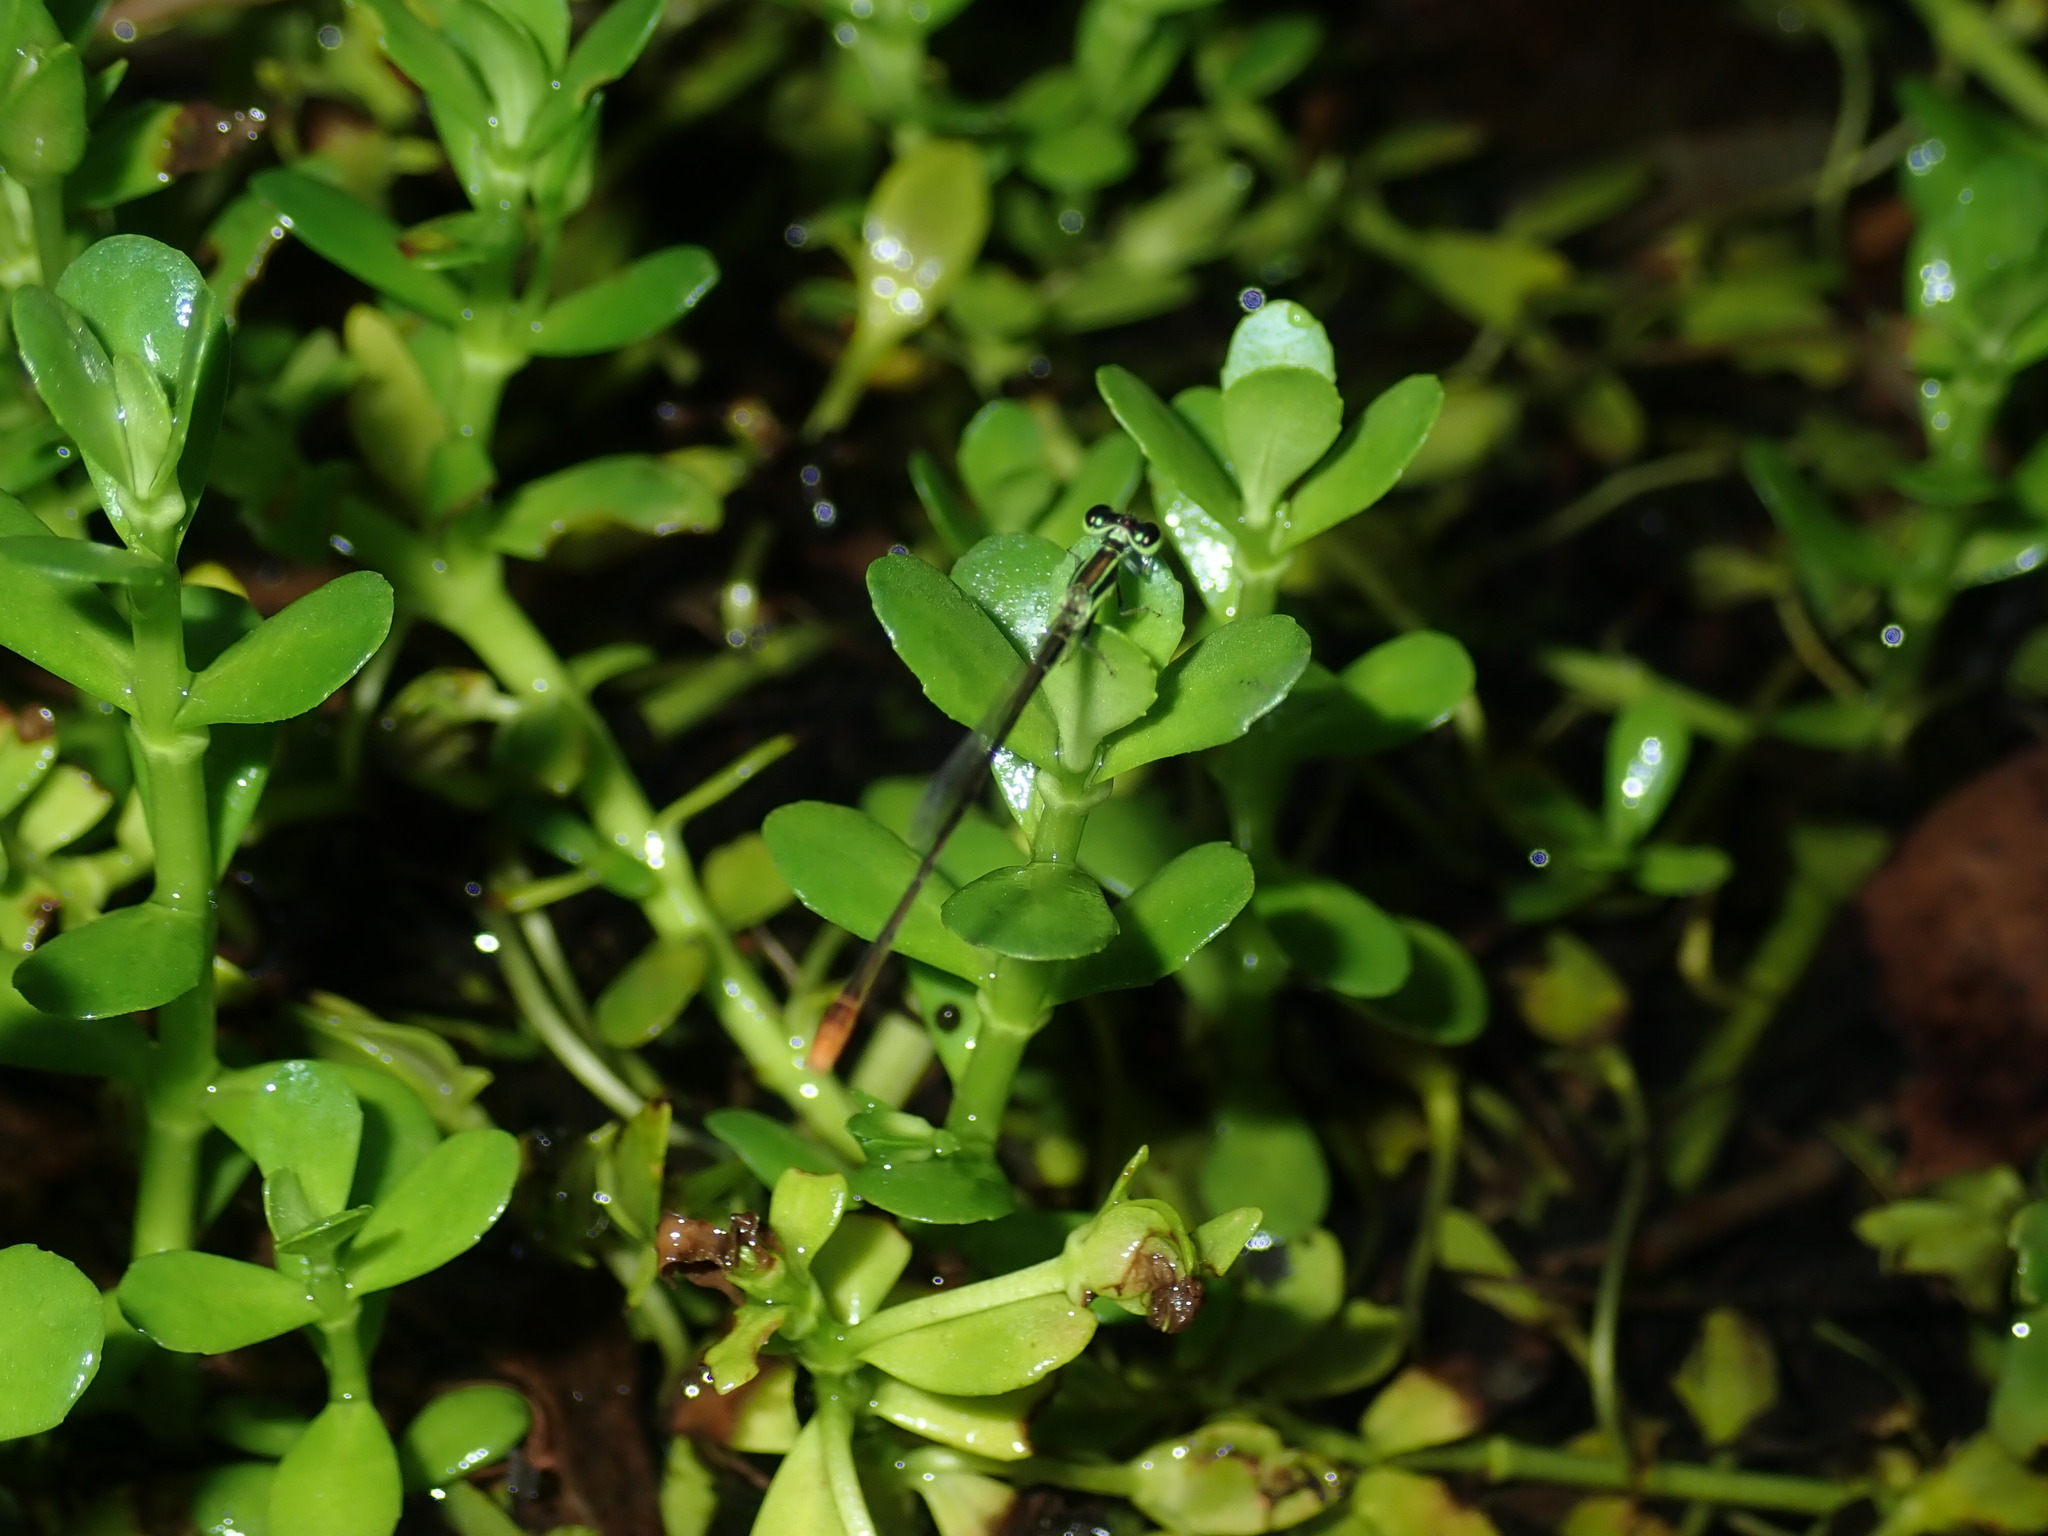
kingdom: Animalia
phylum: Arthropoda
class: Insecta
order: Odonata
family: Coenagrionidae
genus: Agriocnemis
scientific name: Agriocnemis pygmaea
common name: Pygmy wisp
